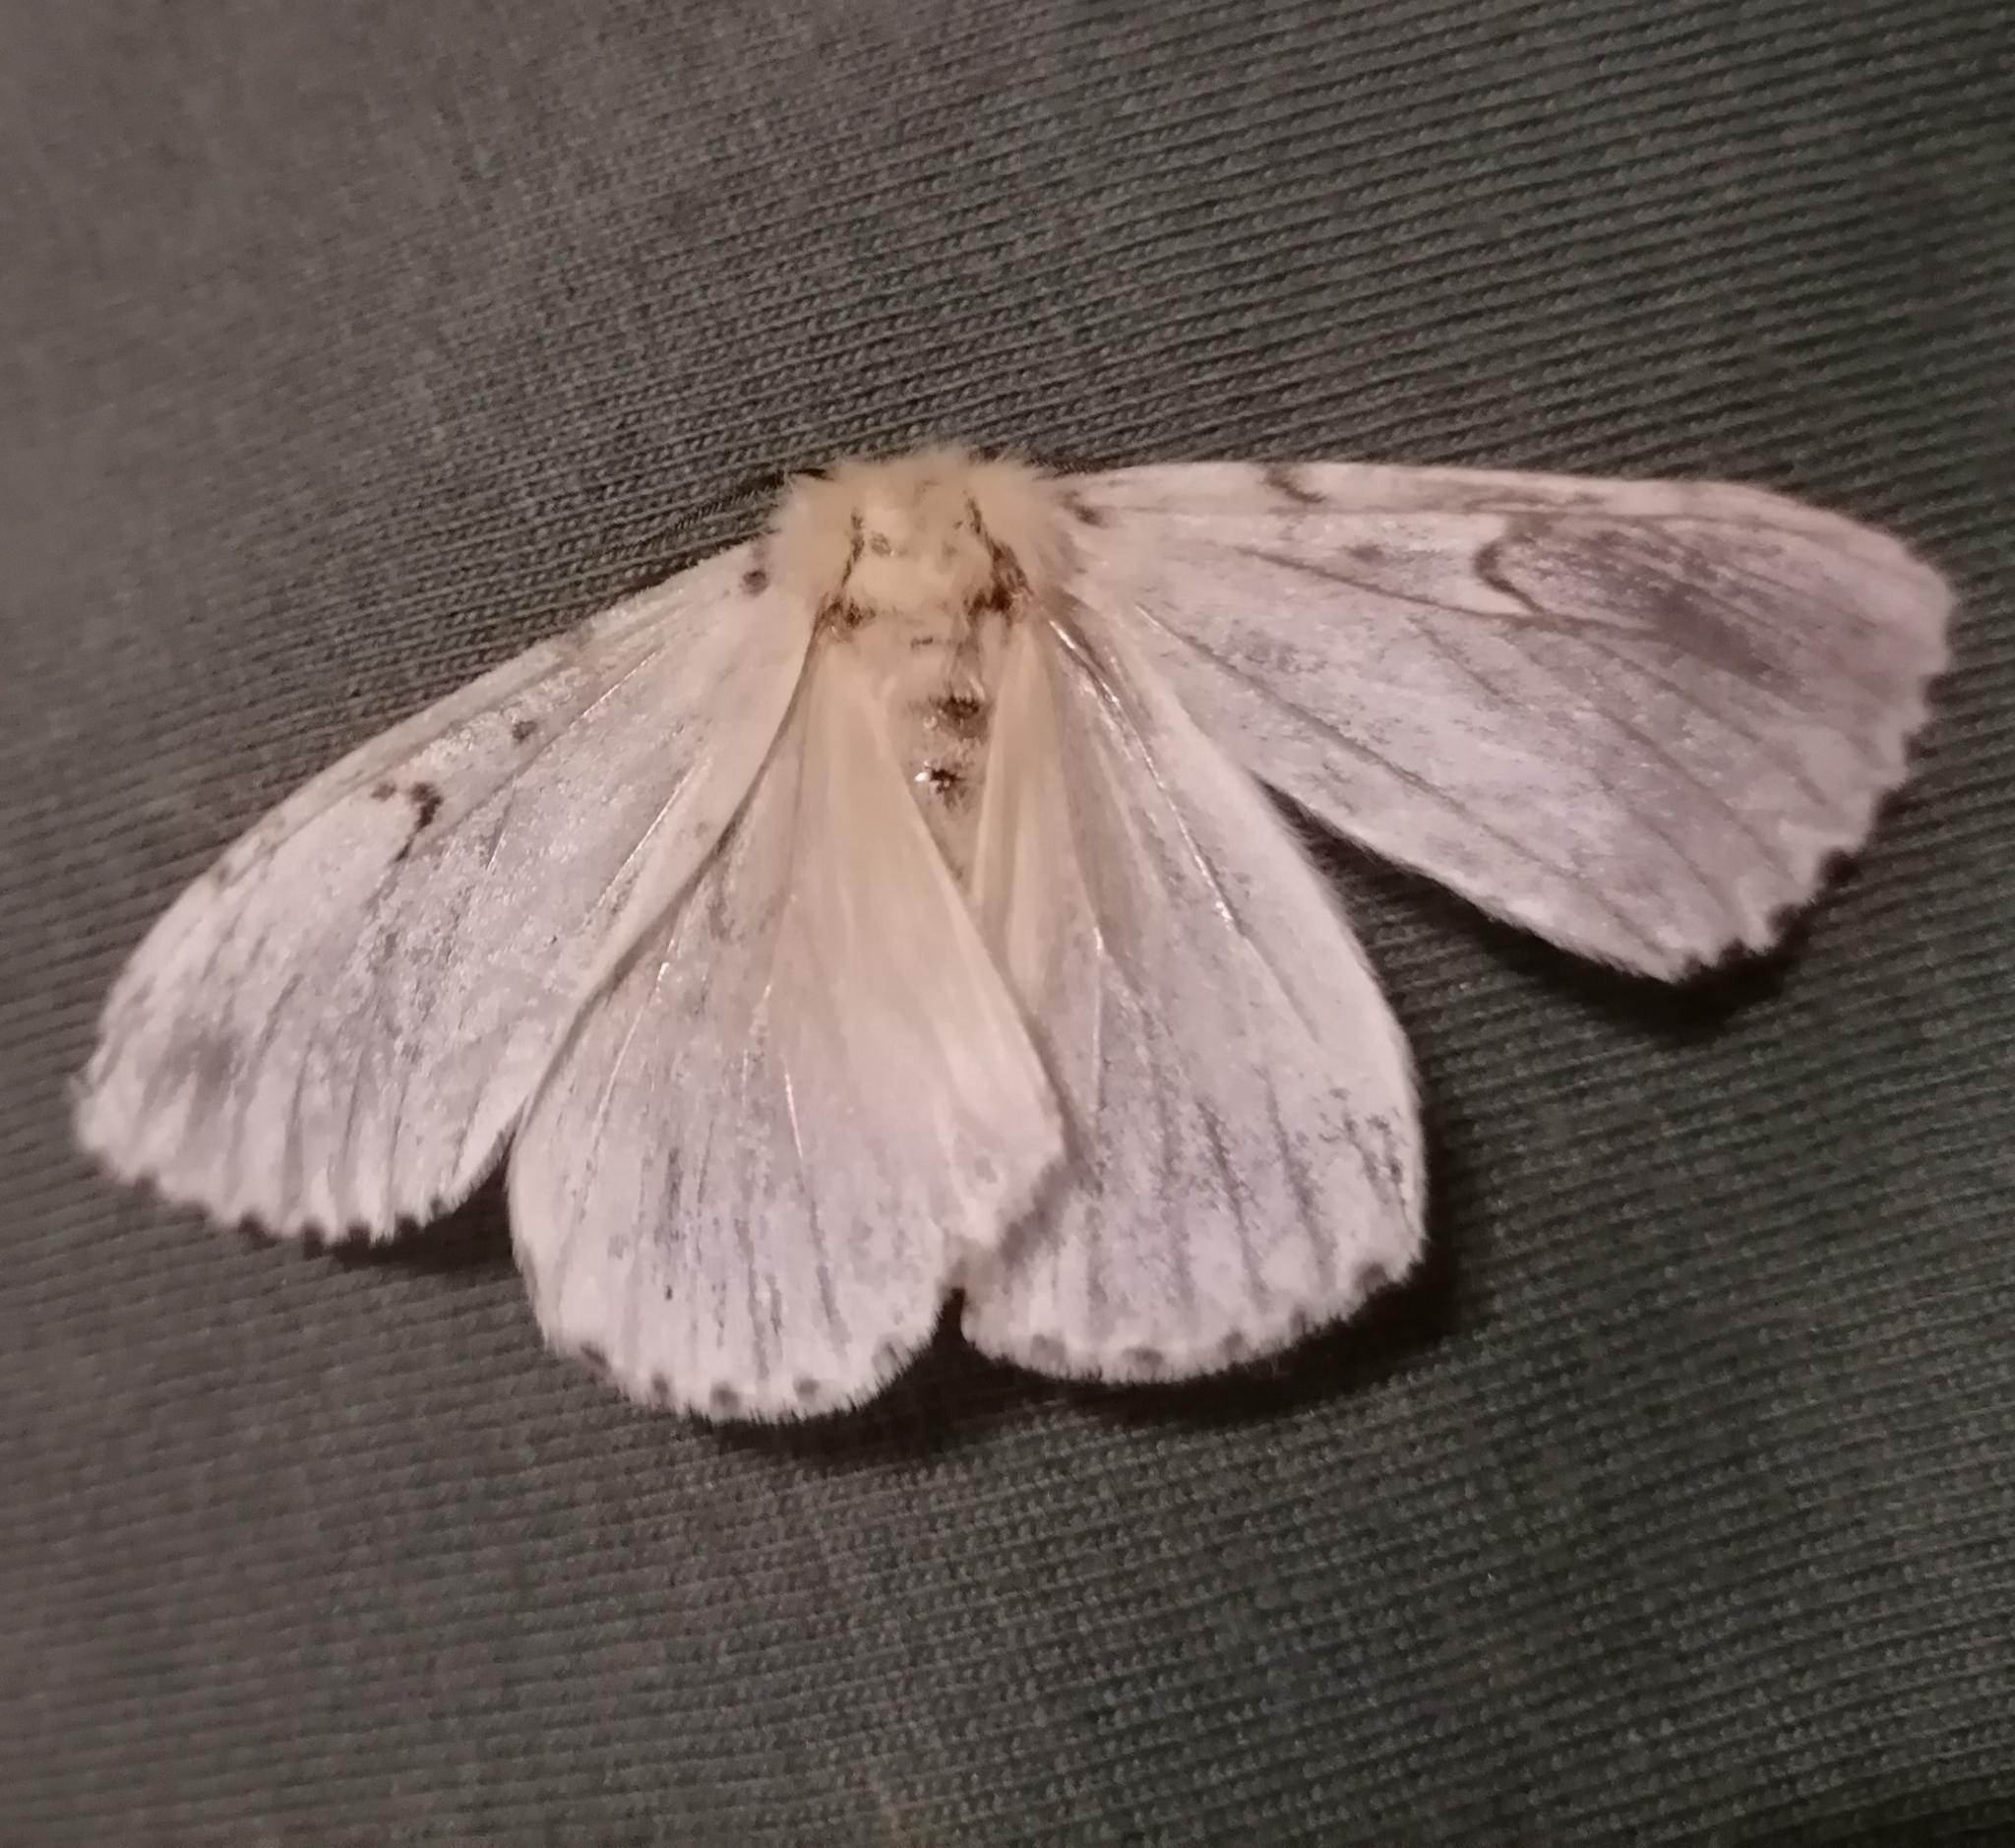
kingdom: Animalia
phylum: Arthropoda
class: Insecta
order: Lepidoptera
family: Erebidae
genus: Lymantria
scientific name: Lymantria dispar
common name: Gypsy moth
